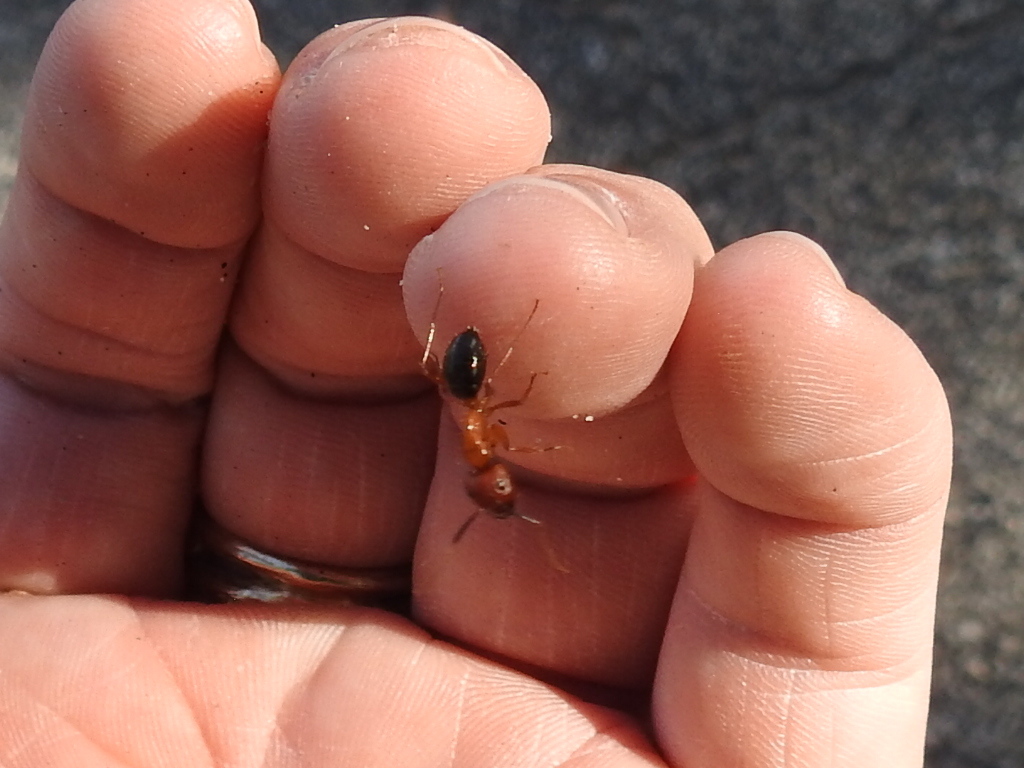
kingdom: Animalia
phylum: Arthropoda
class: Insecta
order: Hymenoptera
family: Formicidae
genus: Camponotus
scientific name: Camponotus floridanus
